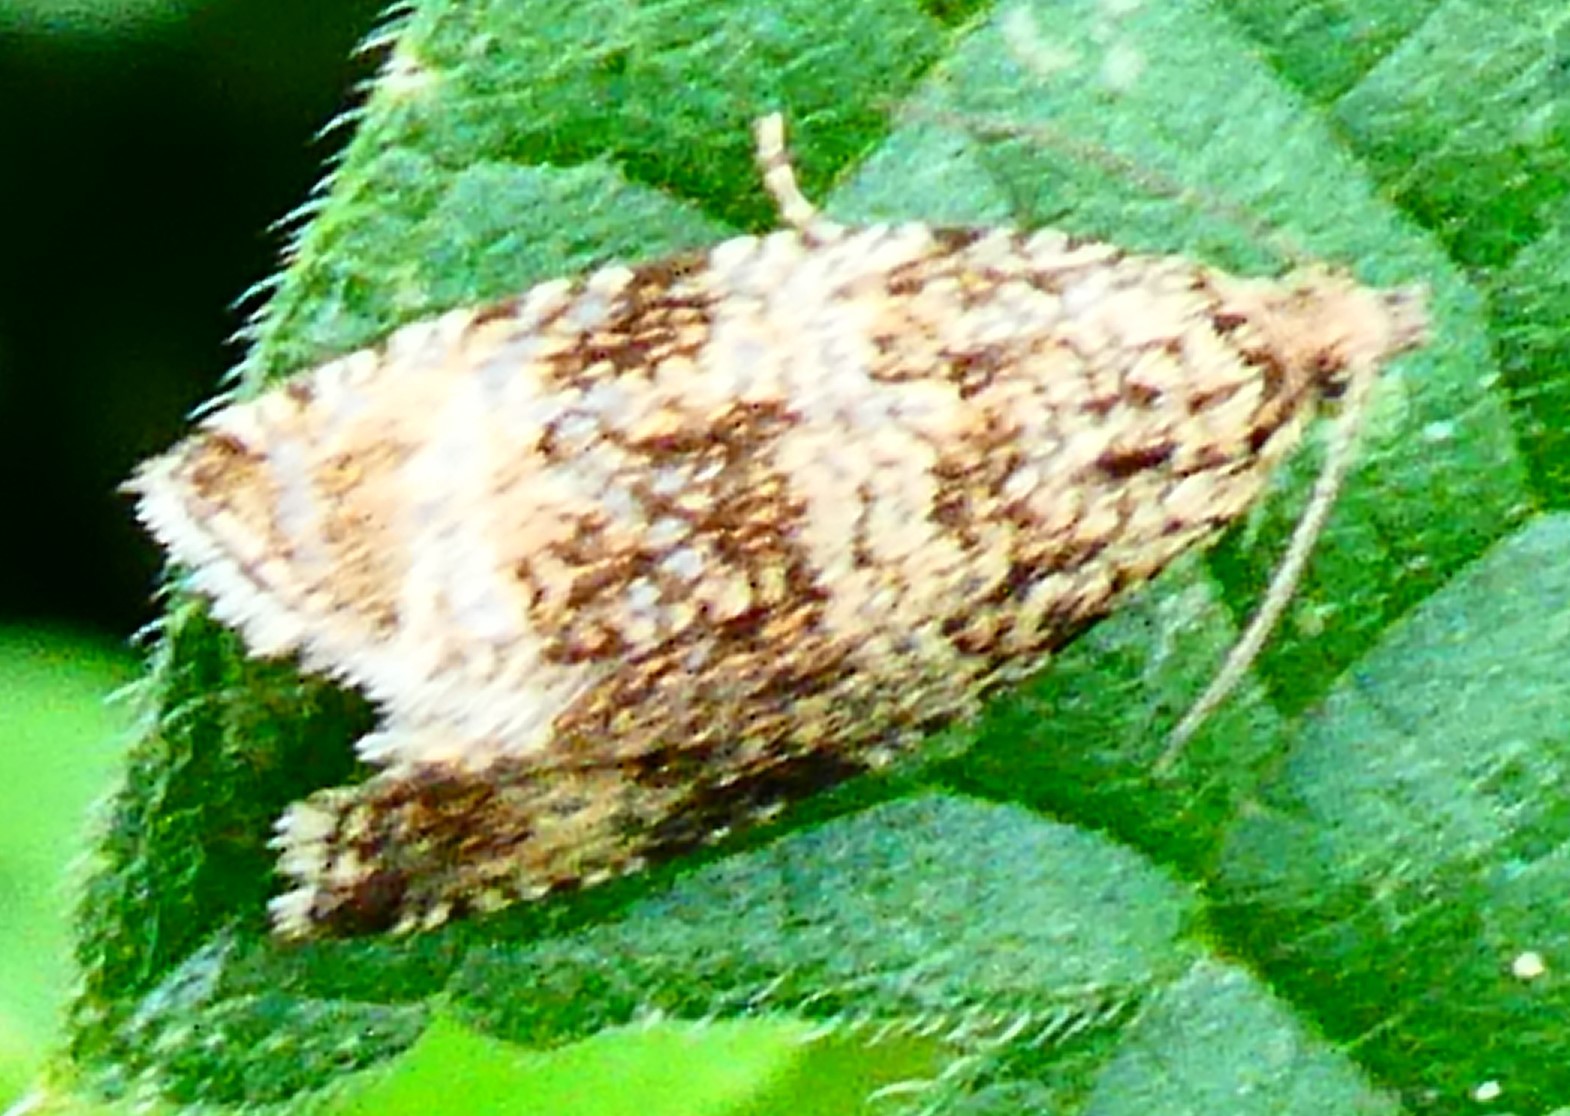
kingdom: Animalia
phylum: Arthropoda
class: Insecta
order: Lepidoptera
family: Tortricidae
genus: Syricoris
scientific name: Syricoris lacunana
